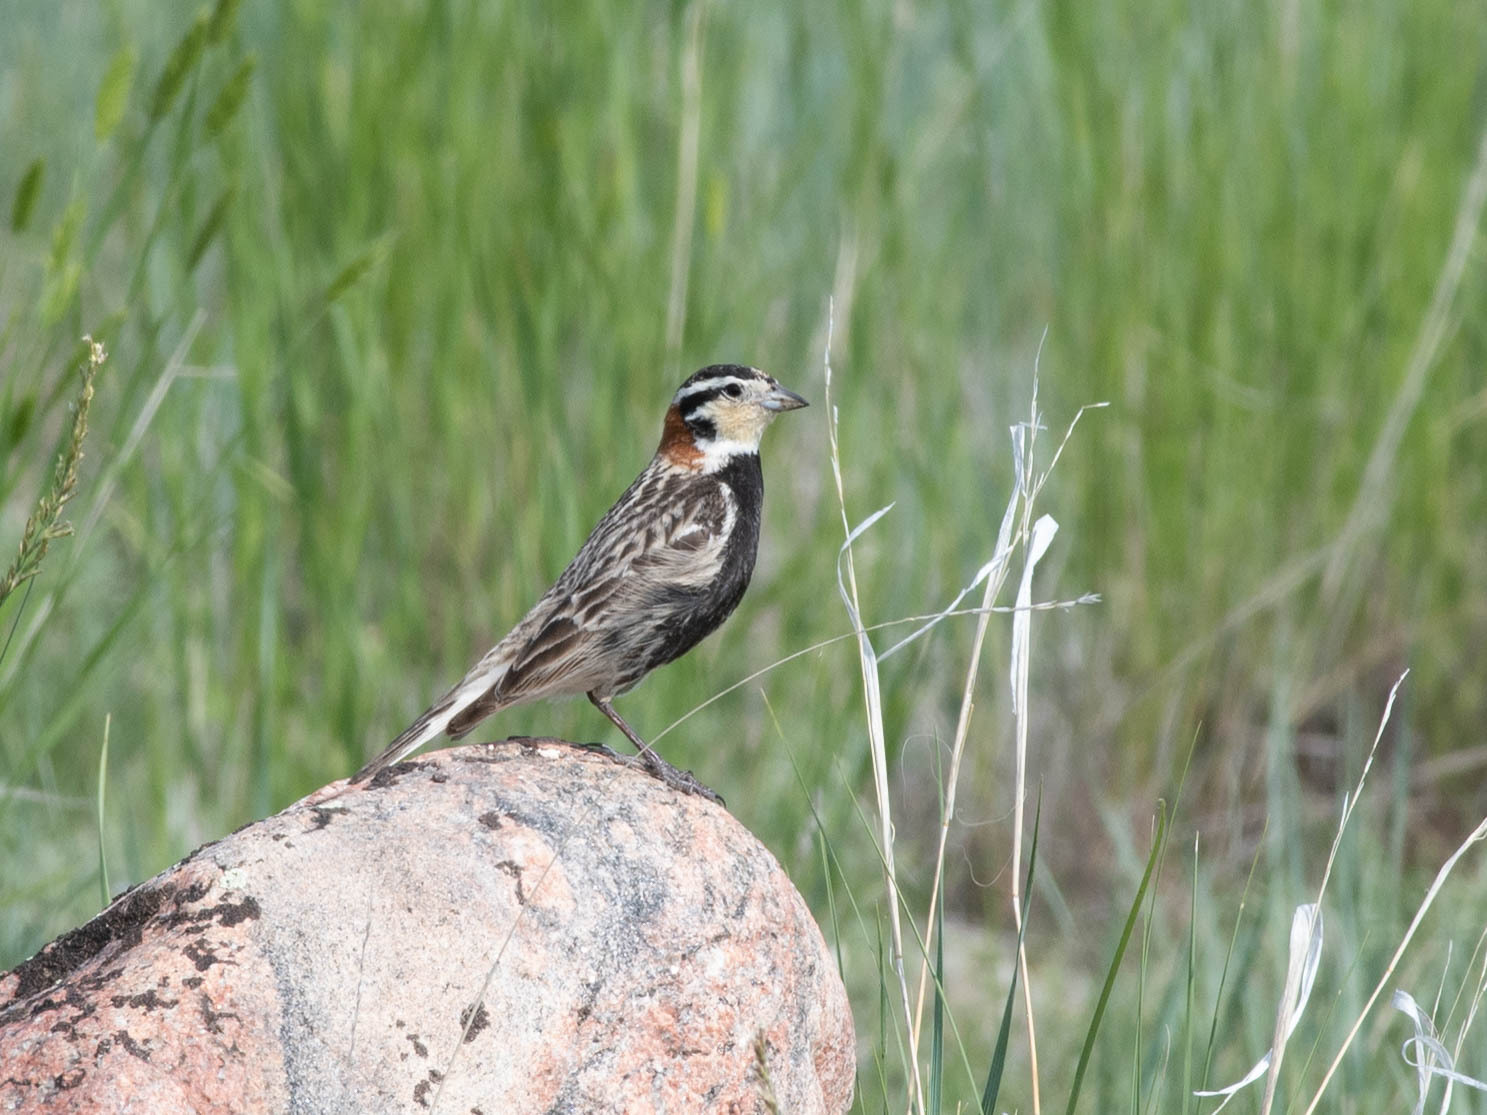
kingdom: Animalia
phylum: Chordata
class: Aves
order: Passeriformes
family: Calcariidae
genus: Calcarius
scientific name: Calcarius ornatus
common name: Chestnut-collared longspur
